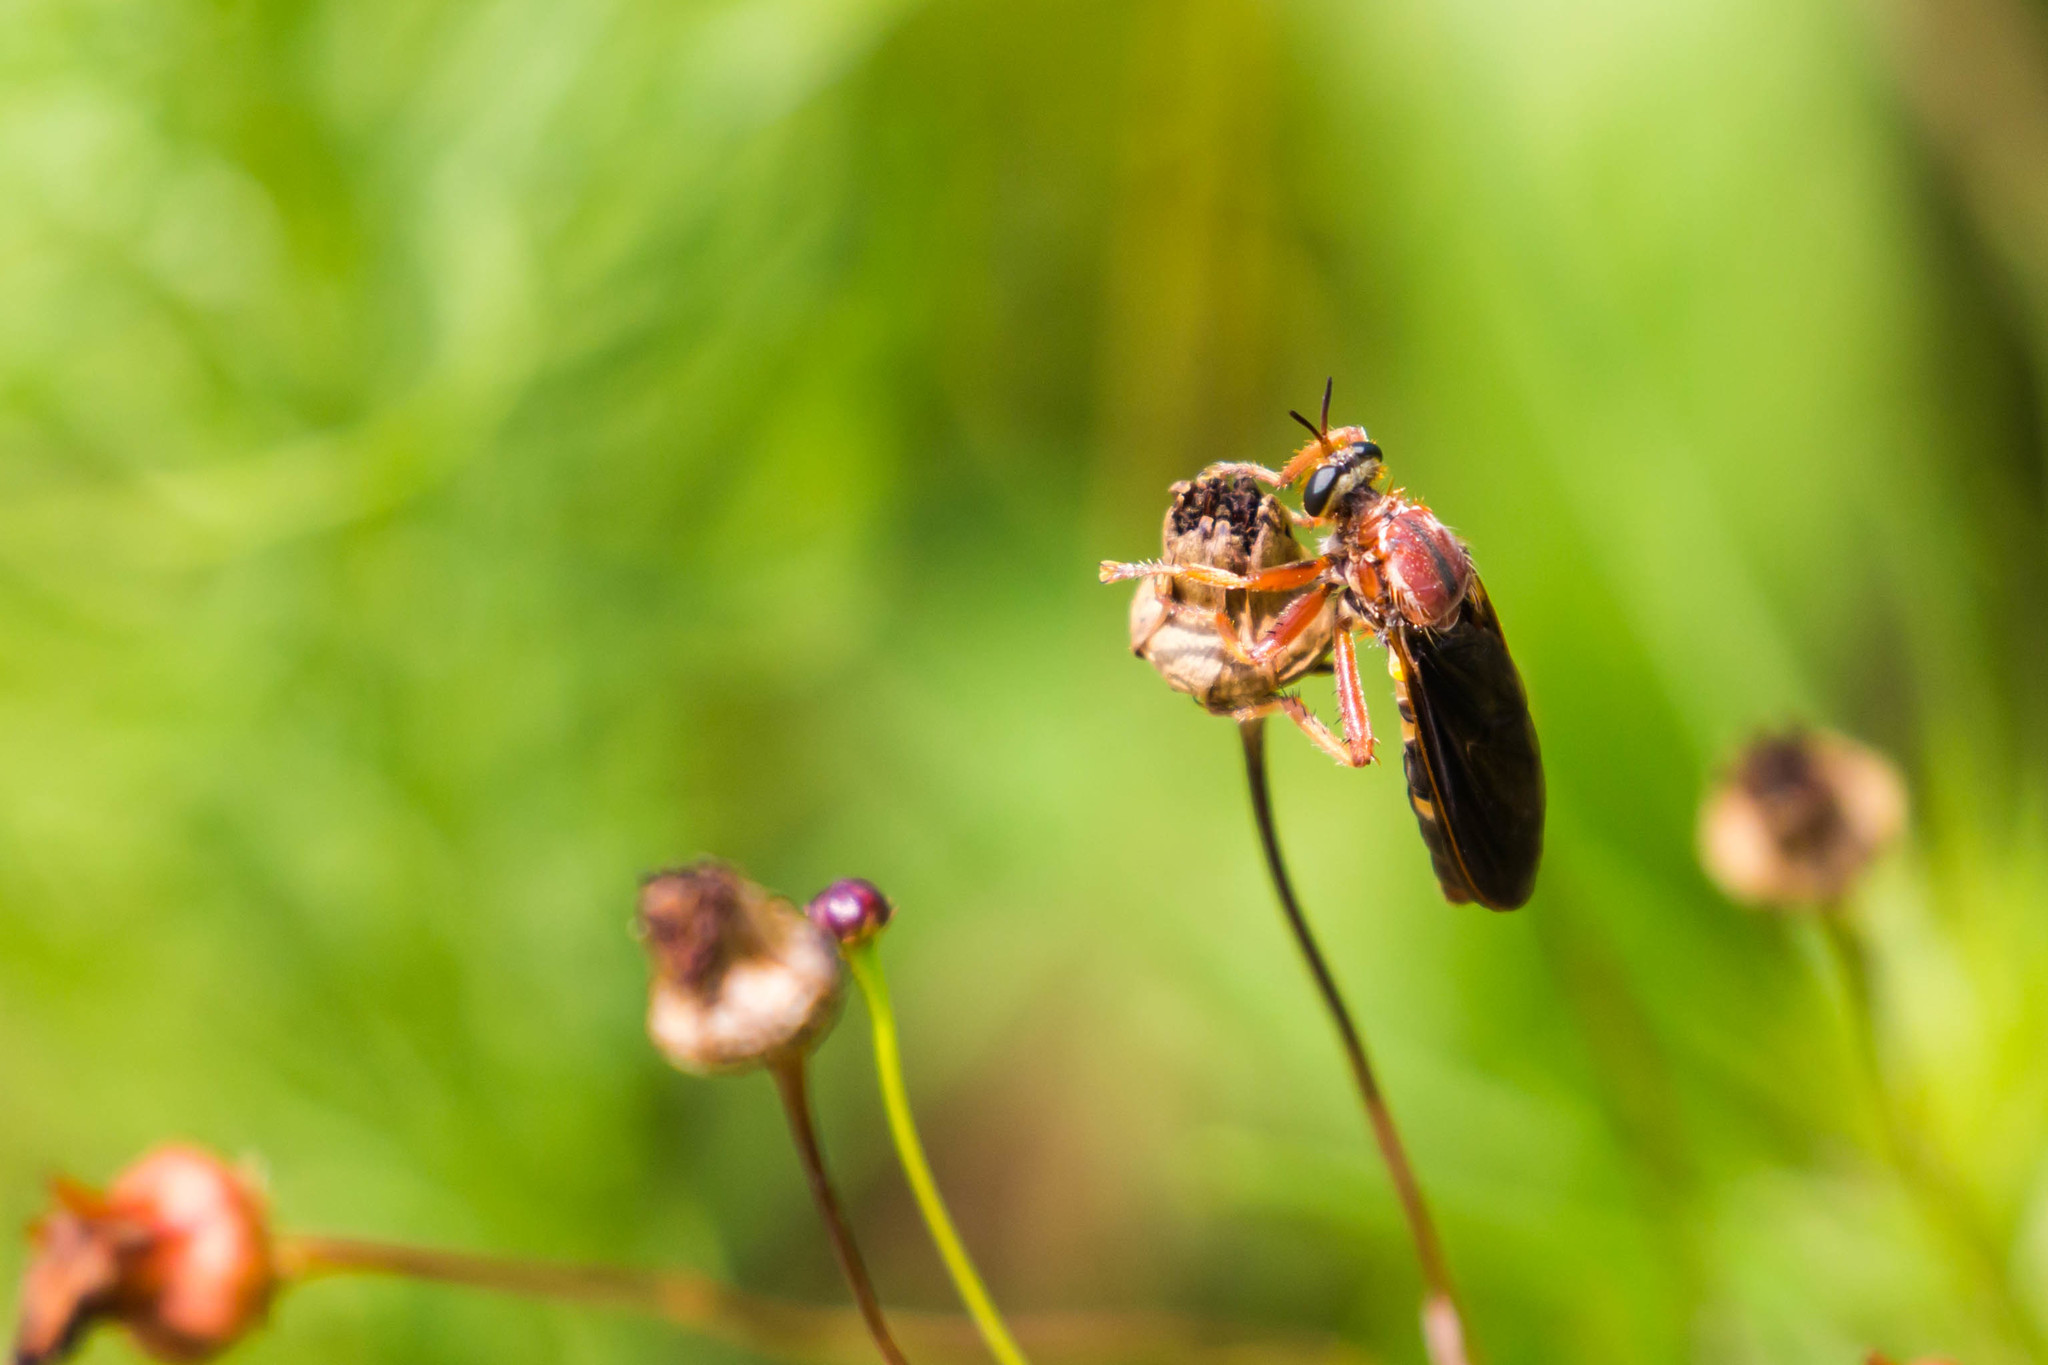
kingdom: Animalia
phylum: Arthropoda
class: Insecta
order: Diptera
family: Asilidae
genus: Prolepsis
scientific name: Prolepsis tristis
